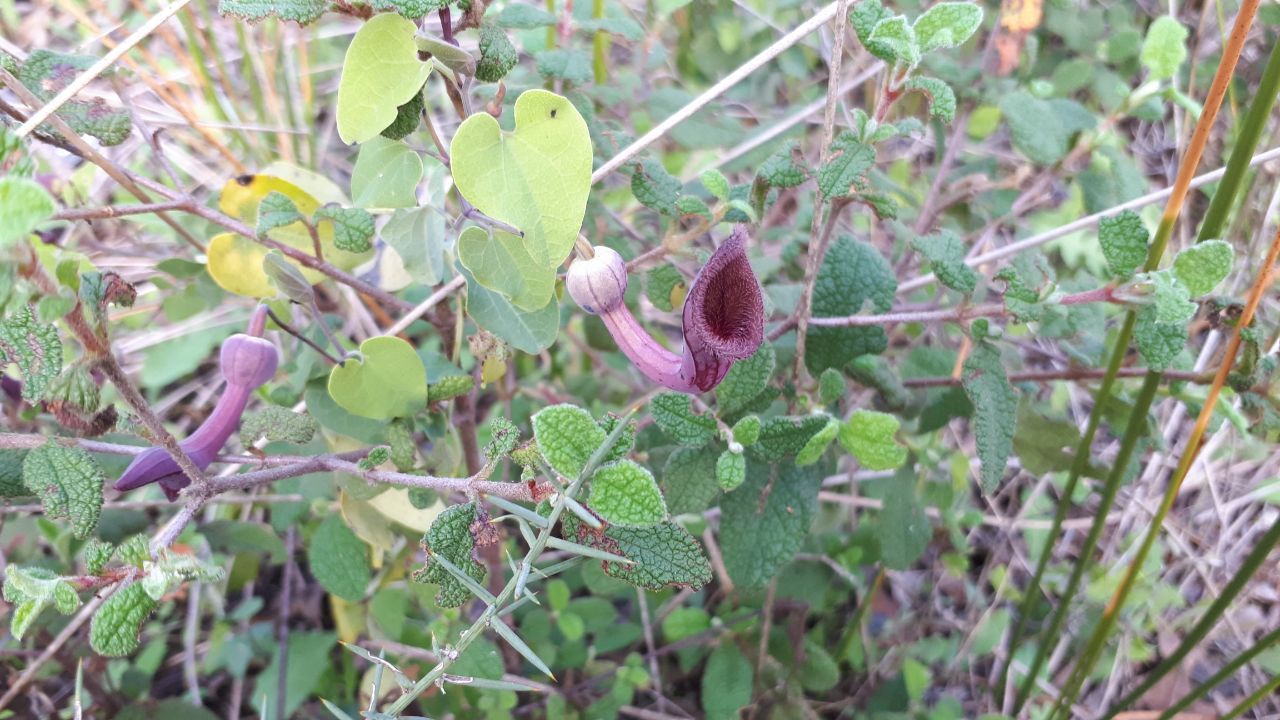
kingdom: Plantae
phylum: Tracheophyta
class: Magnoliopsida
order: Piperales
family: Aristolochiaceae
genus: Aristolochia
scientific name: Aristolochia baetica
